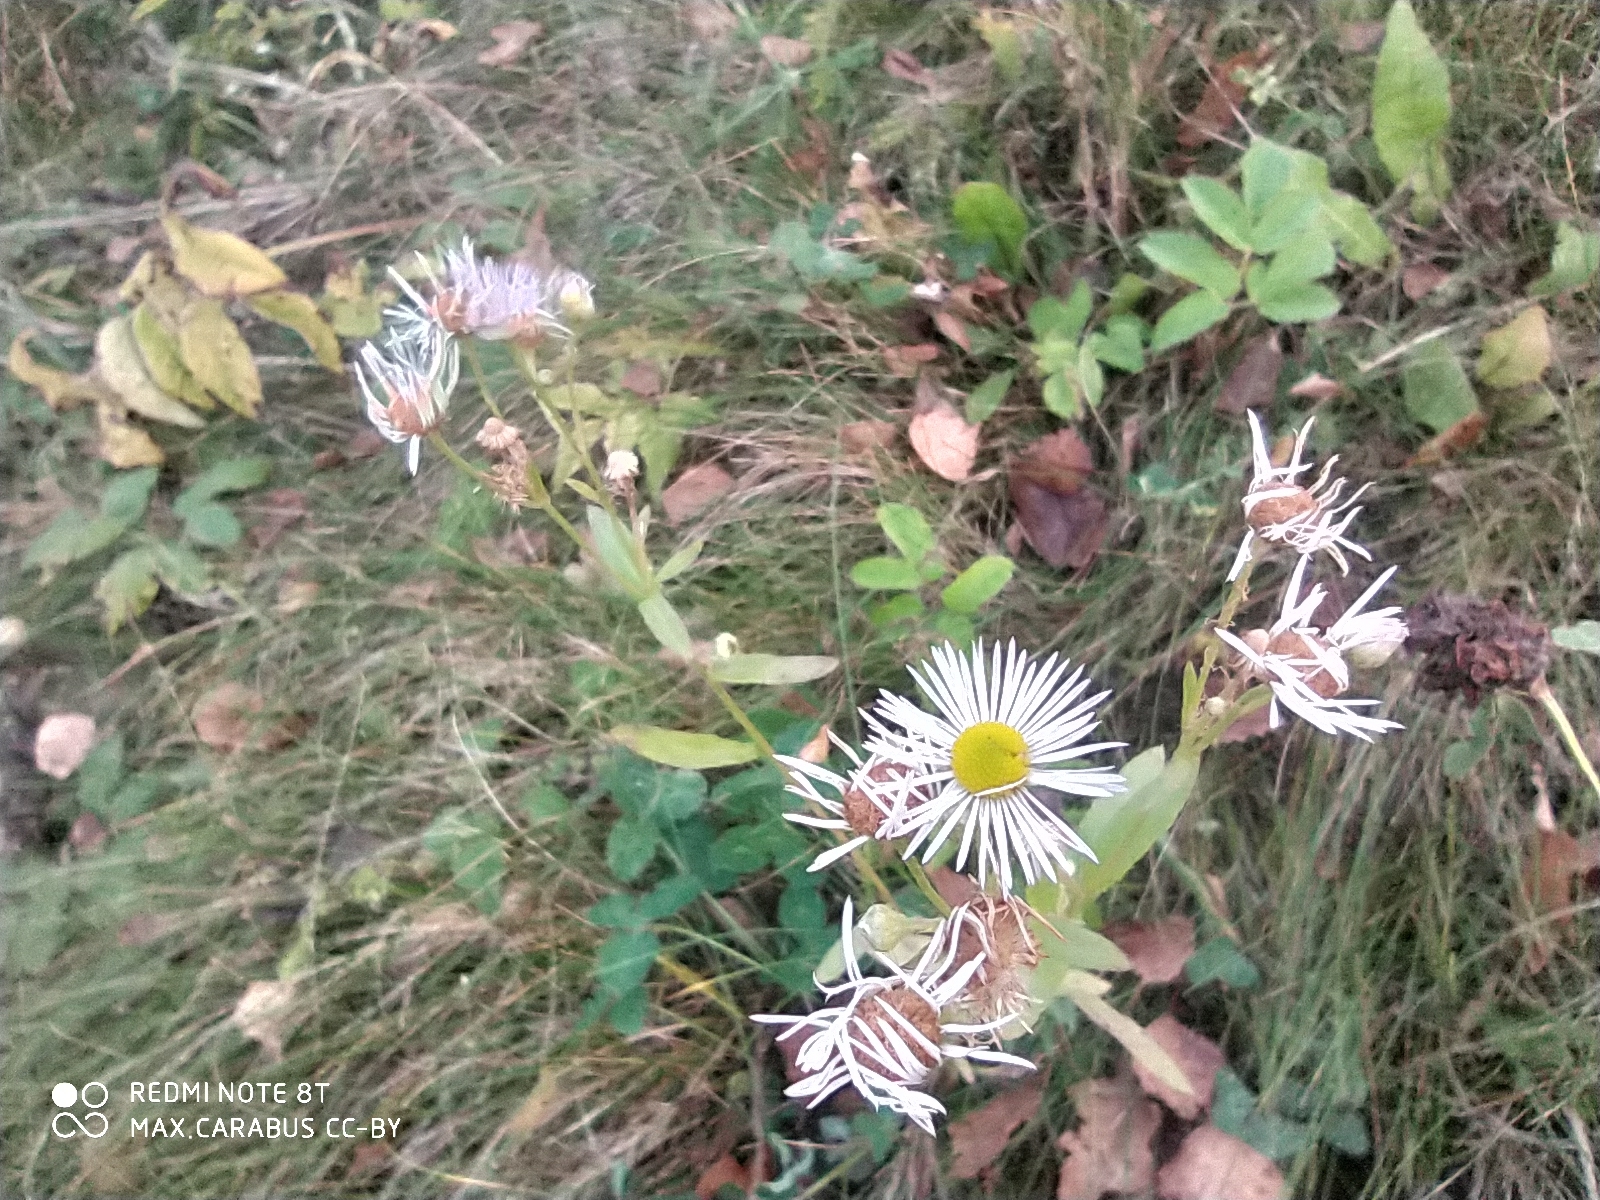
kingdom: Plantae
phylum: Tracheophyta
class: Magnoliopsida
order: Asterales
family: Asteraceae
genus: Erigeron
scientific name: Erigeron annuus
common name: Tall fleabane
